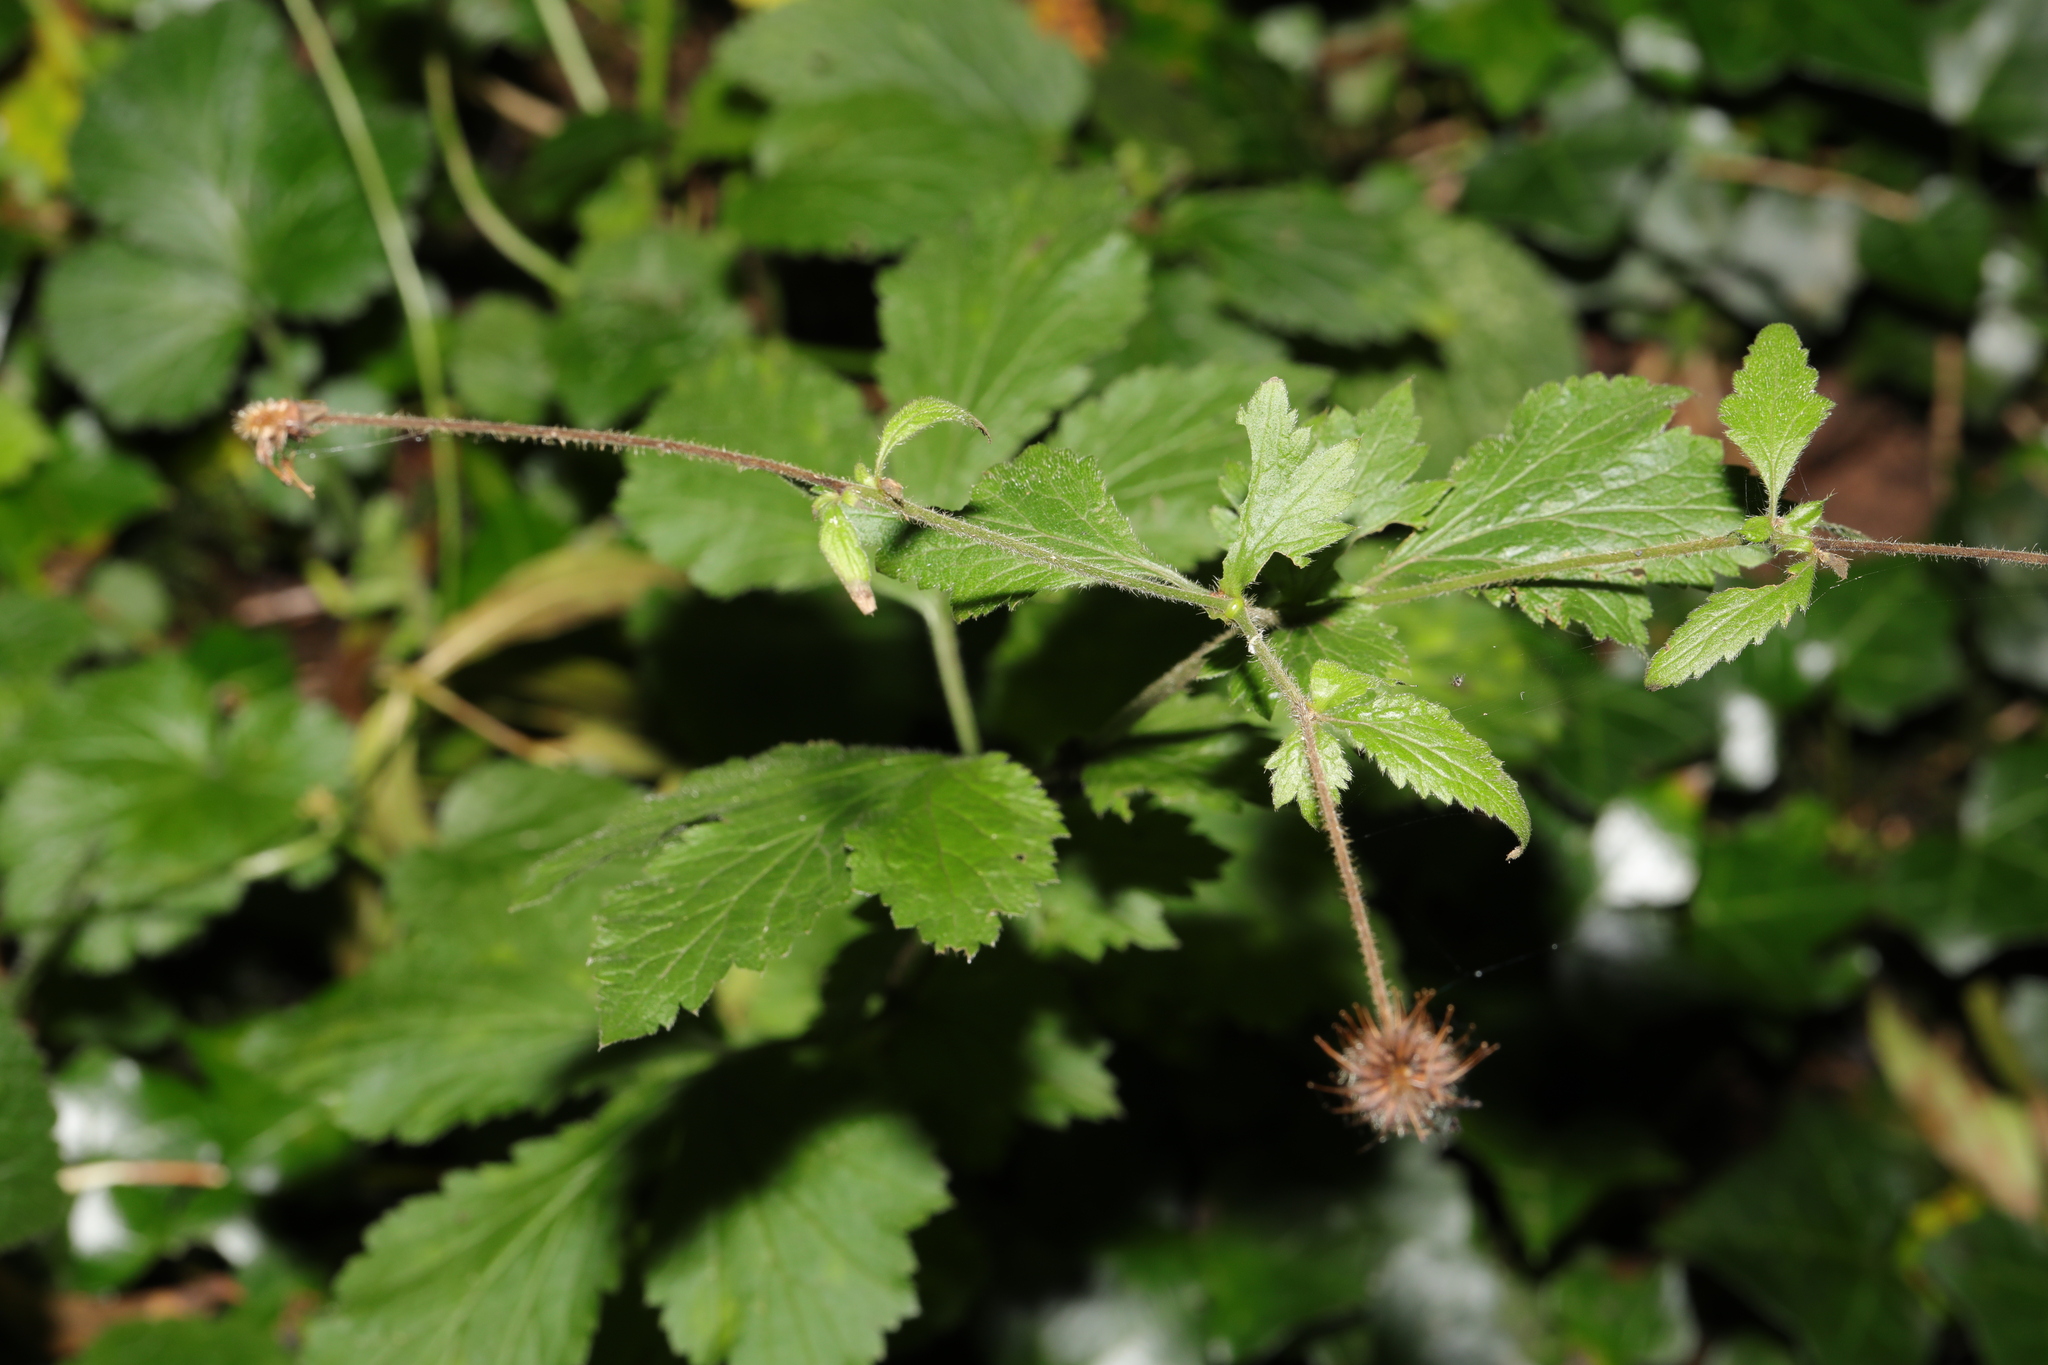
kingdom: Plantae
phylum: Tracheophyta
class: Magnoliopsida
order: Rosales
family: Rosaceae
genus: Geum
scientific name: Geum urbanum
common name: Wood avens
